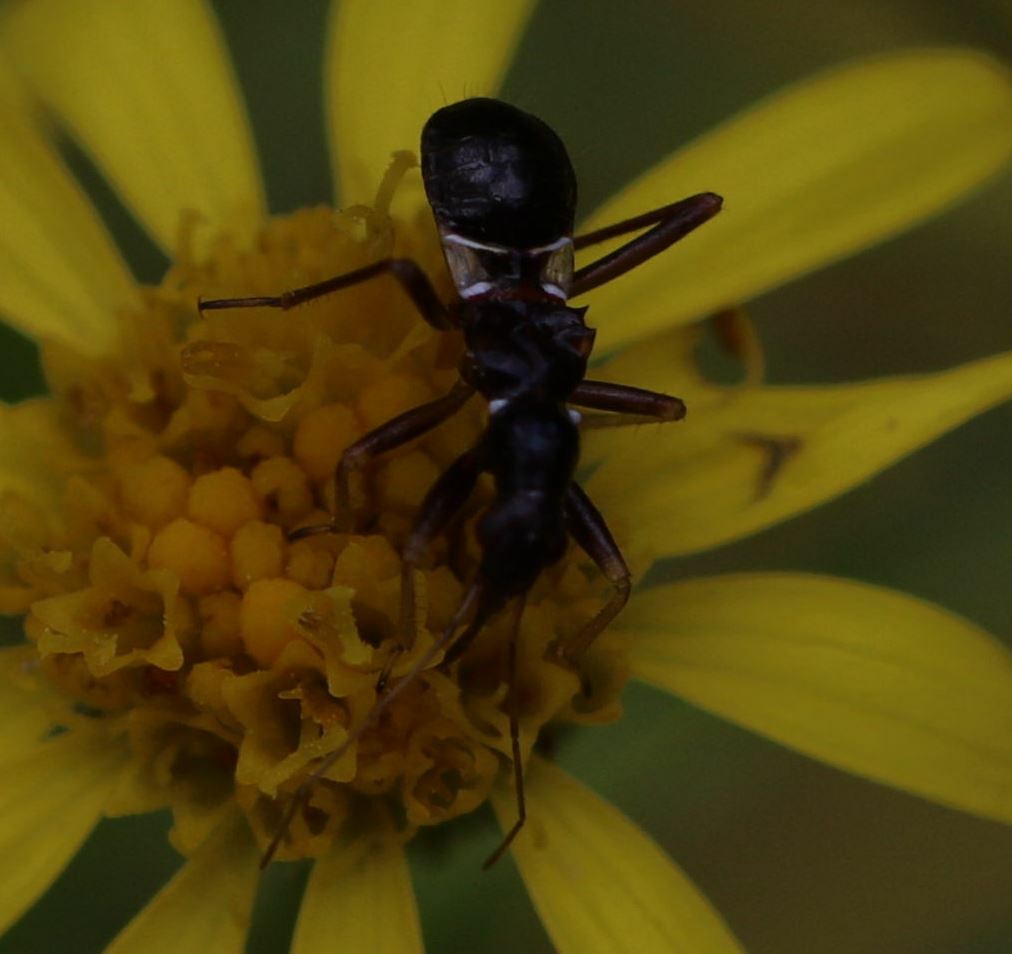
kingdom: Animalia
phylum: Arthropoda
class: Insecta
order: Hemiptera
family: Nabidae
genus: Himacerus
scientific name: Himacerus mirmicoides
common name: Ant damsel bug
